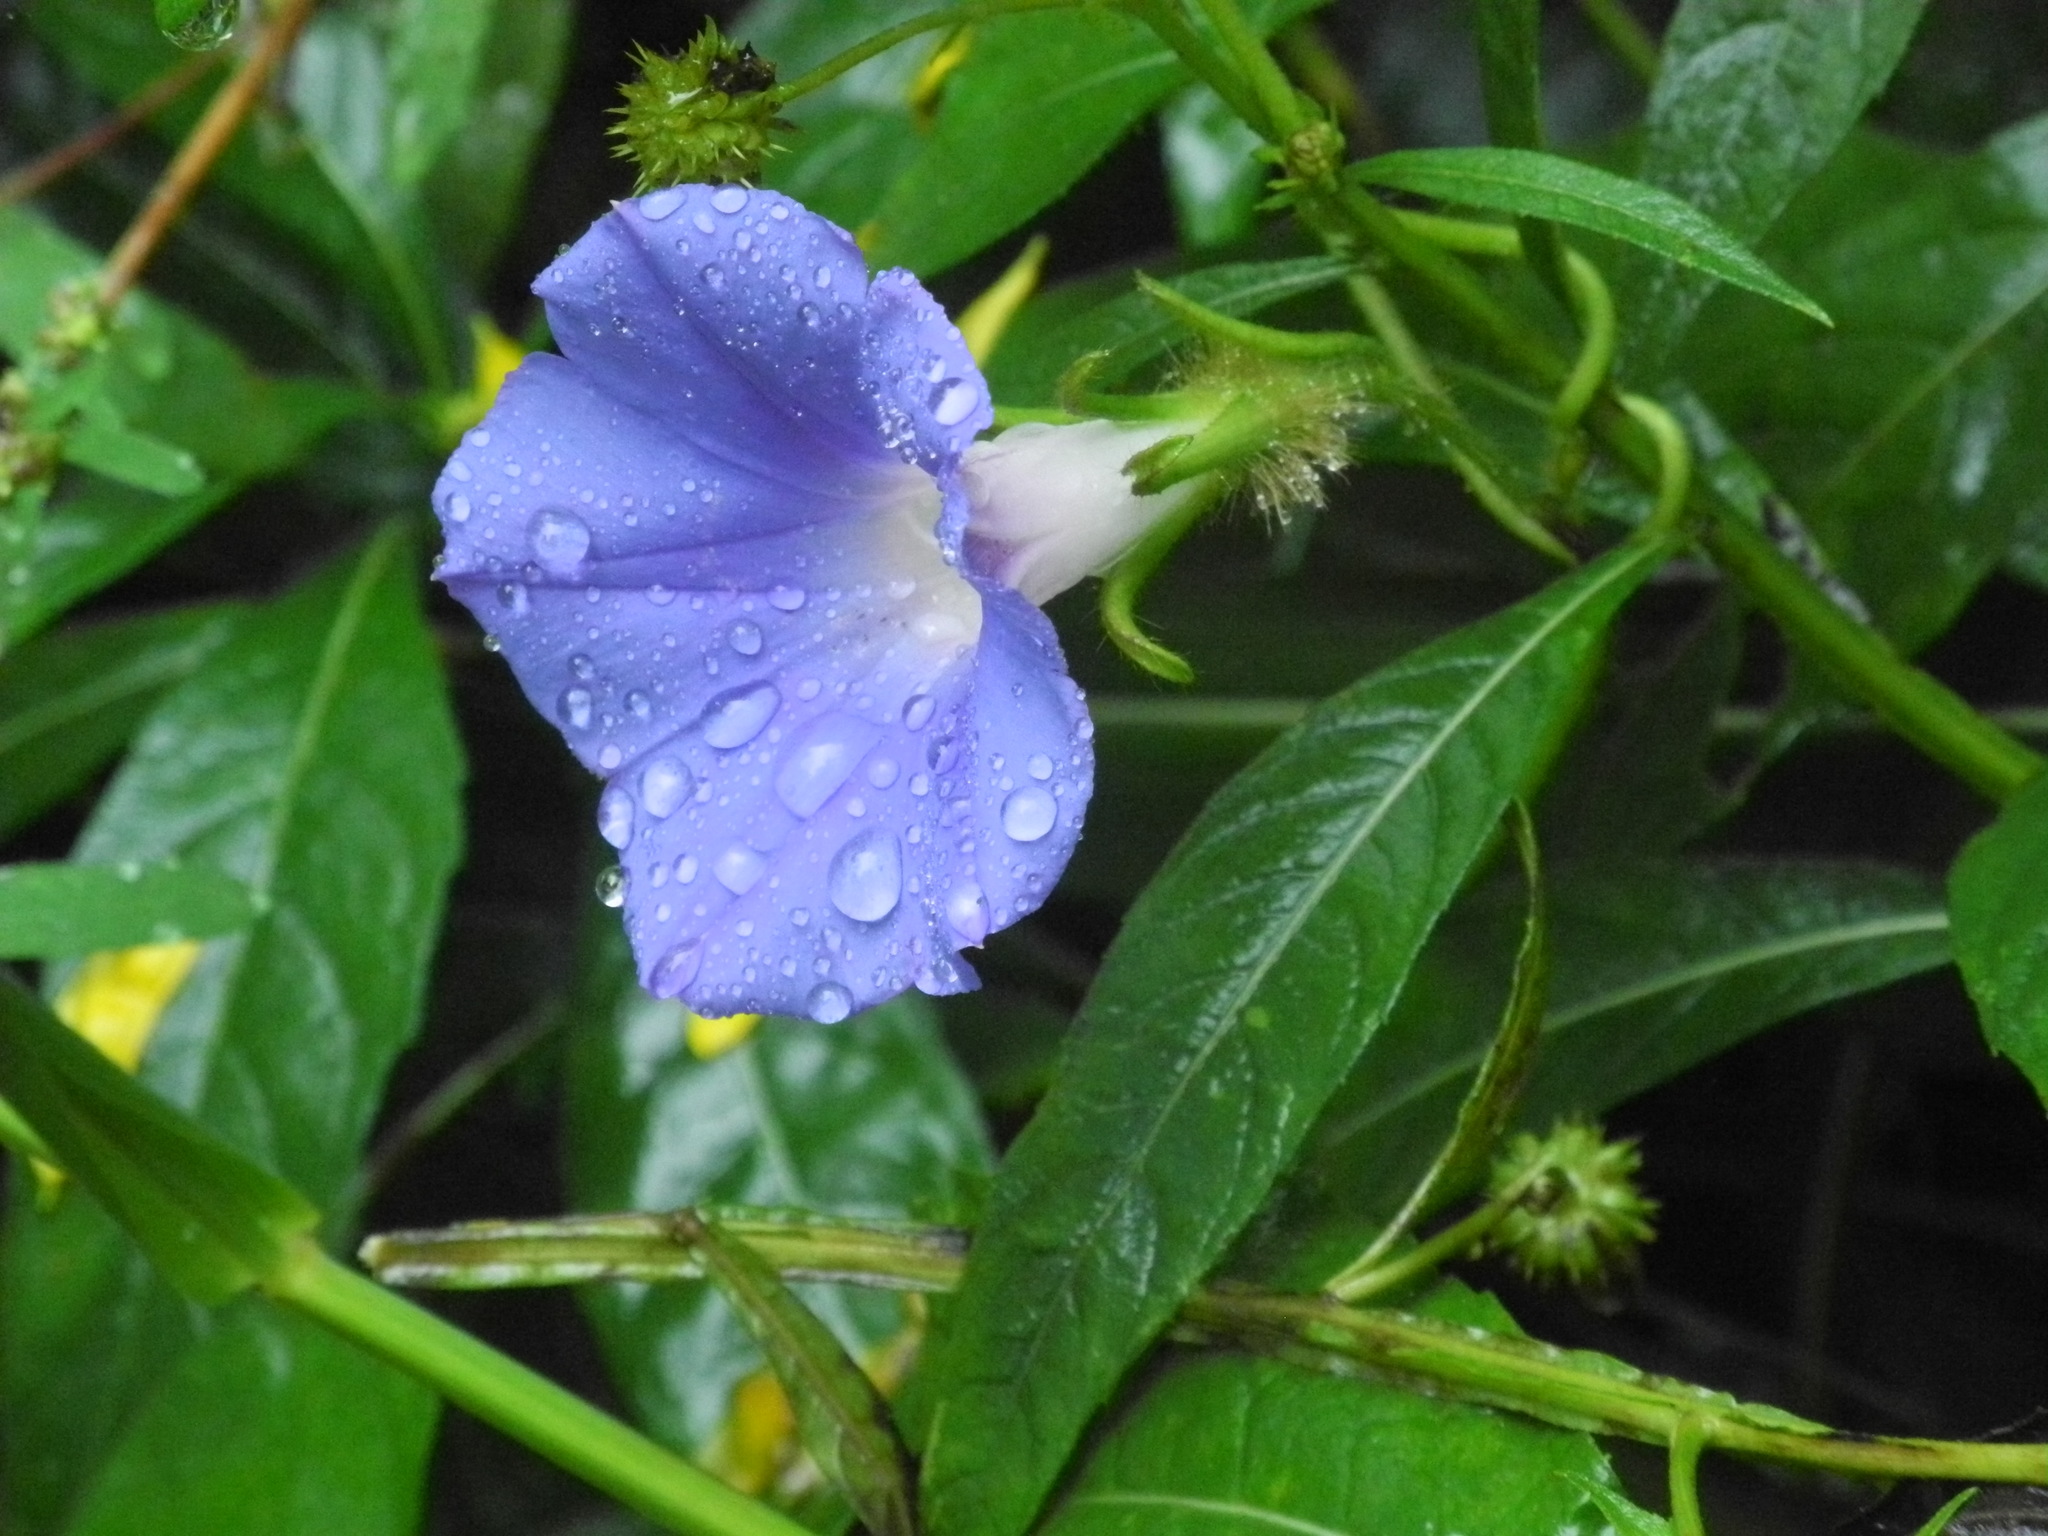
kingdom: Plantae
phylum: Tracheophyta
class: Magnoliopsida
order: Solanales
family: Convolvulaceae
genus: Ipomoea
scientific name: Ipomoea hederacea
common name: Ivy-leaved morning-glory
